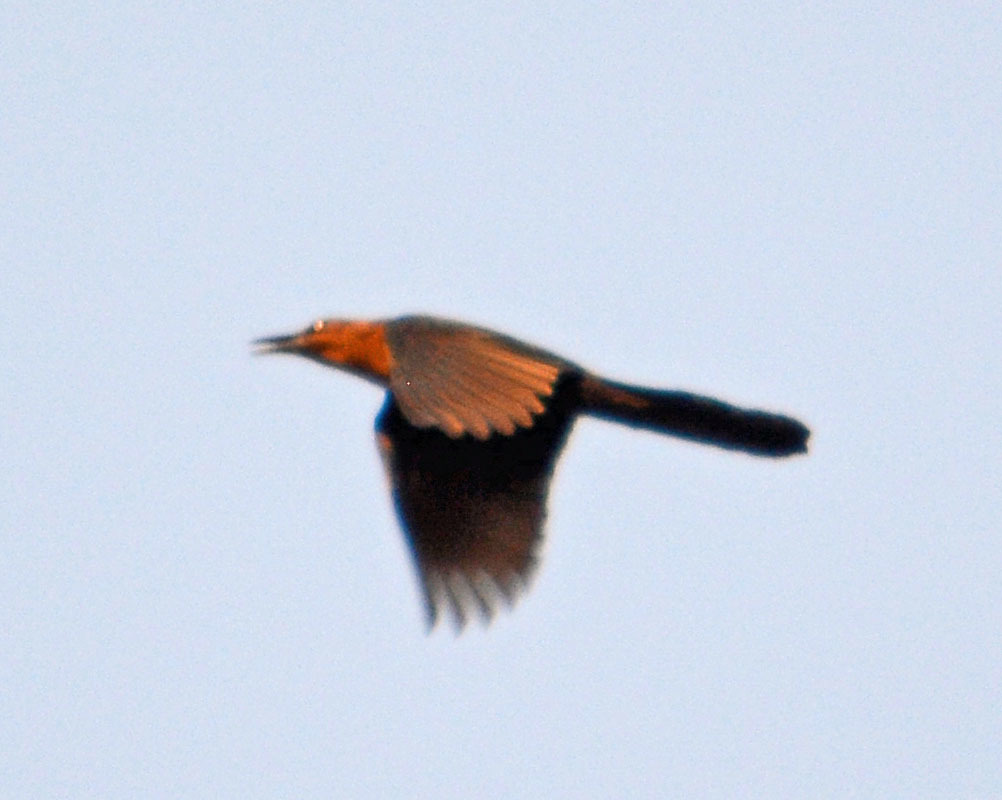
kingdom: Animalia
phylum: Chordata
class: Aves
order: Passeriformes
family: Icteridae
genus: Quiscalus
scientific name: Quiscalus mexicanus
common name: Great-tailed grackle
